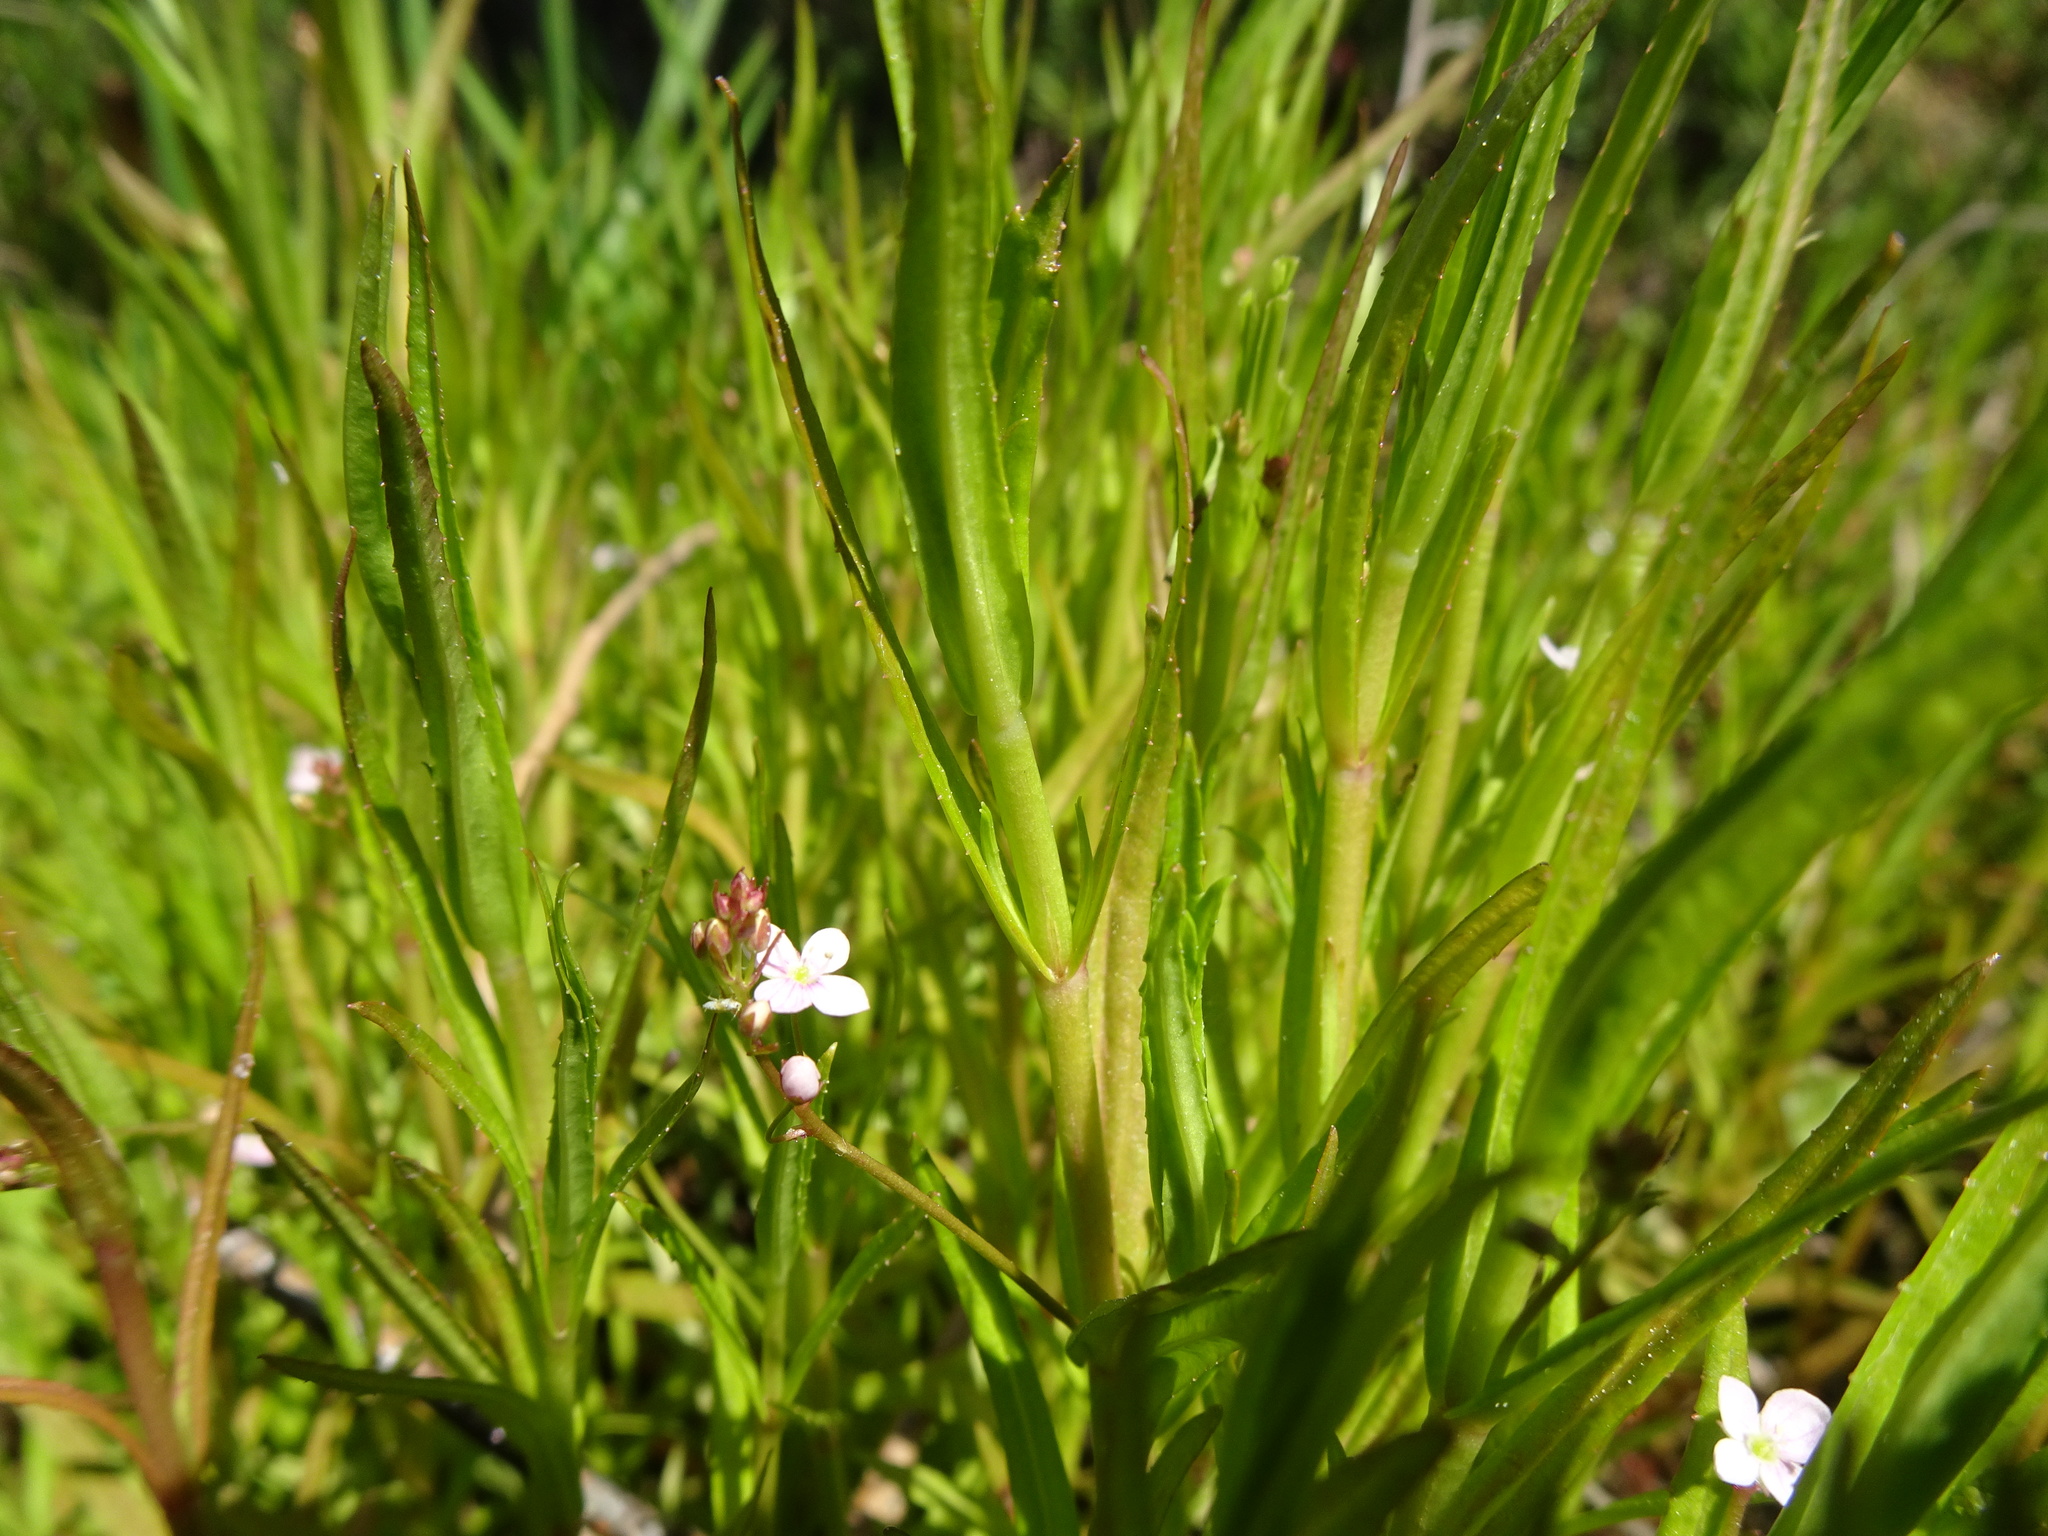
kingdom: Plantae
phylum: Tracheophyta
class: Magnoliopsida
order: Lamiales
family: Plantaginaceae
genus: Veronica
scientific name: Veronica scutellata
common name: Marsh speedwell
